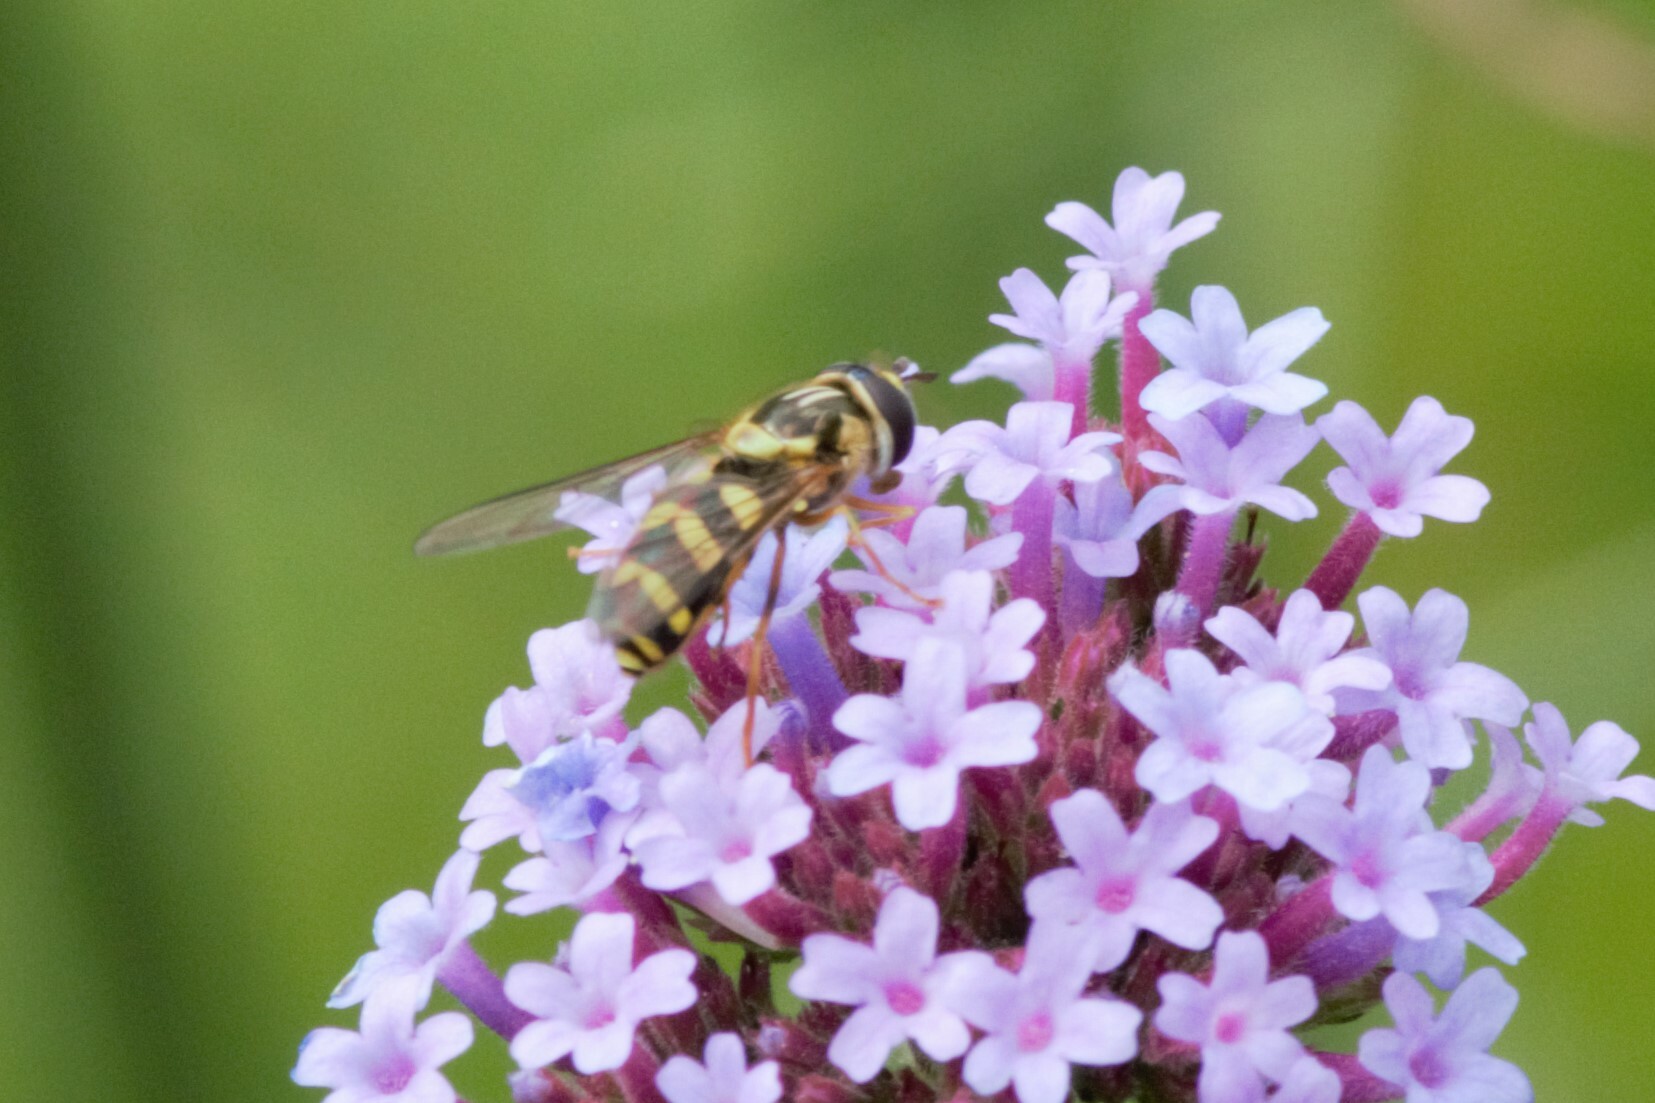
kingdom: Animalia
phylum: Arthropoda
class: Insecta
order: Diptera
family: Syrphidae
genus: Dasysyrphus
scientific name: Dasysyrphus albostriatus
